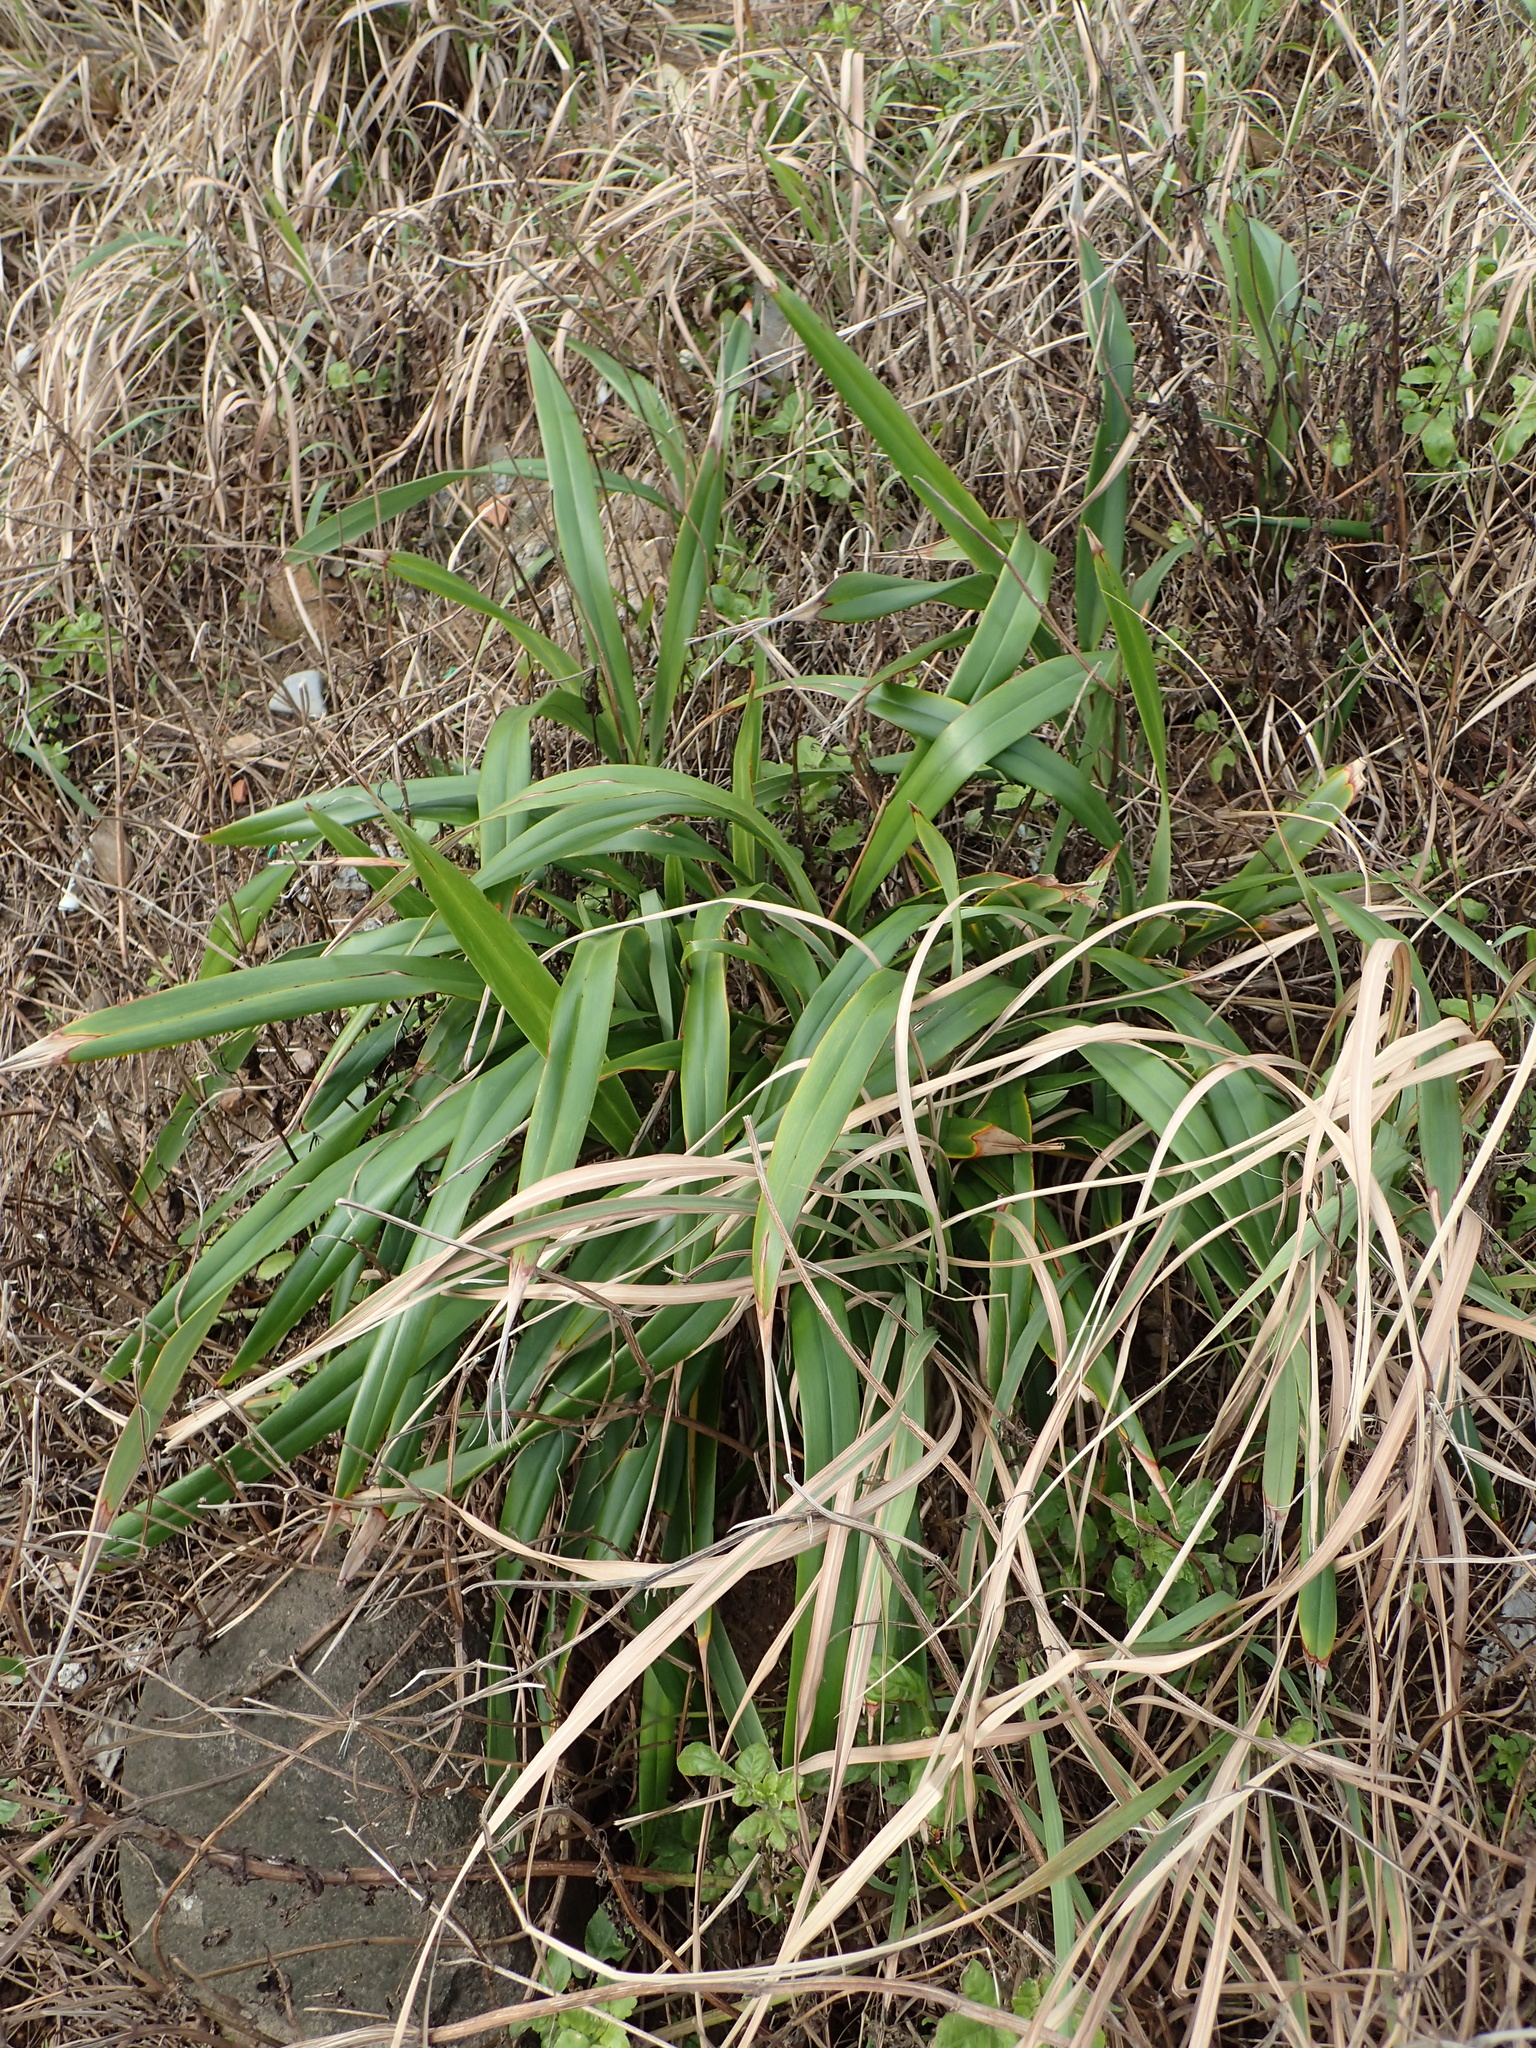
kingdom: Plantae
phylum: Tracheophyta
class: Liliopsida
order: Asparagales
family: Asphodelaceae
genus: Dianella
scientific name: Dianella ensifolia
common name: New zealand lilyplant
